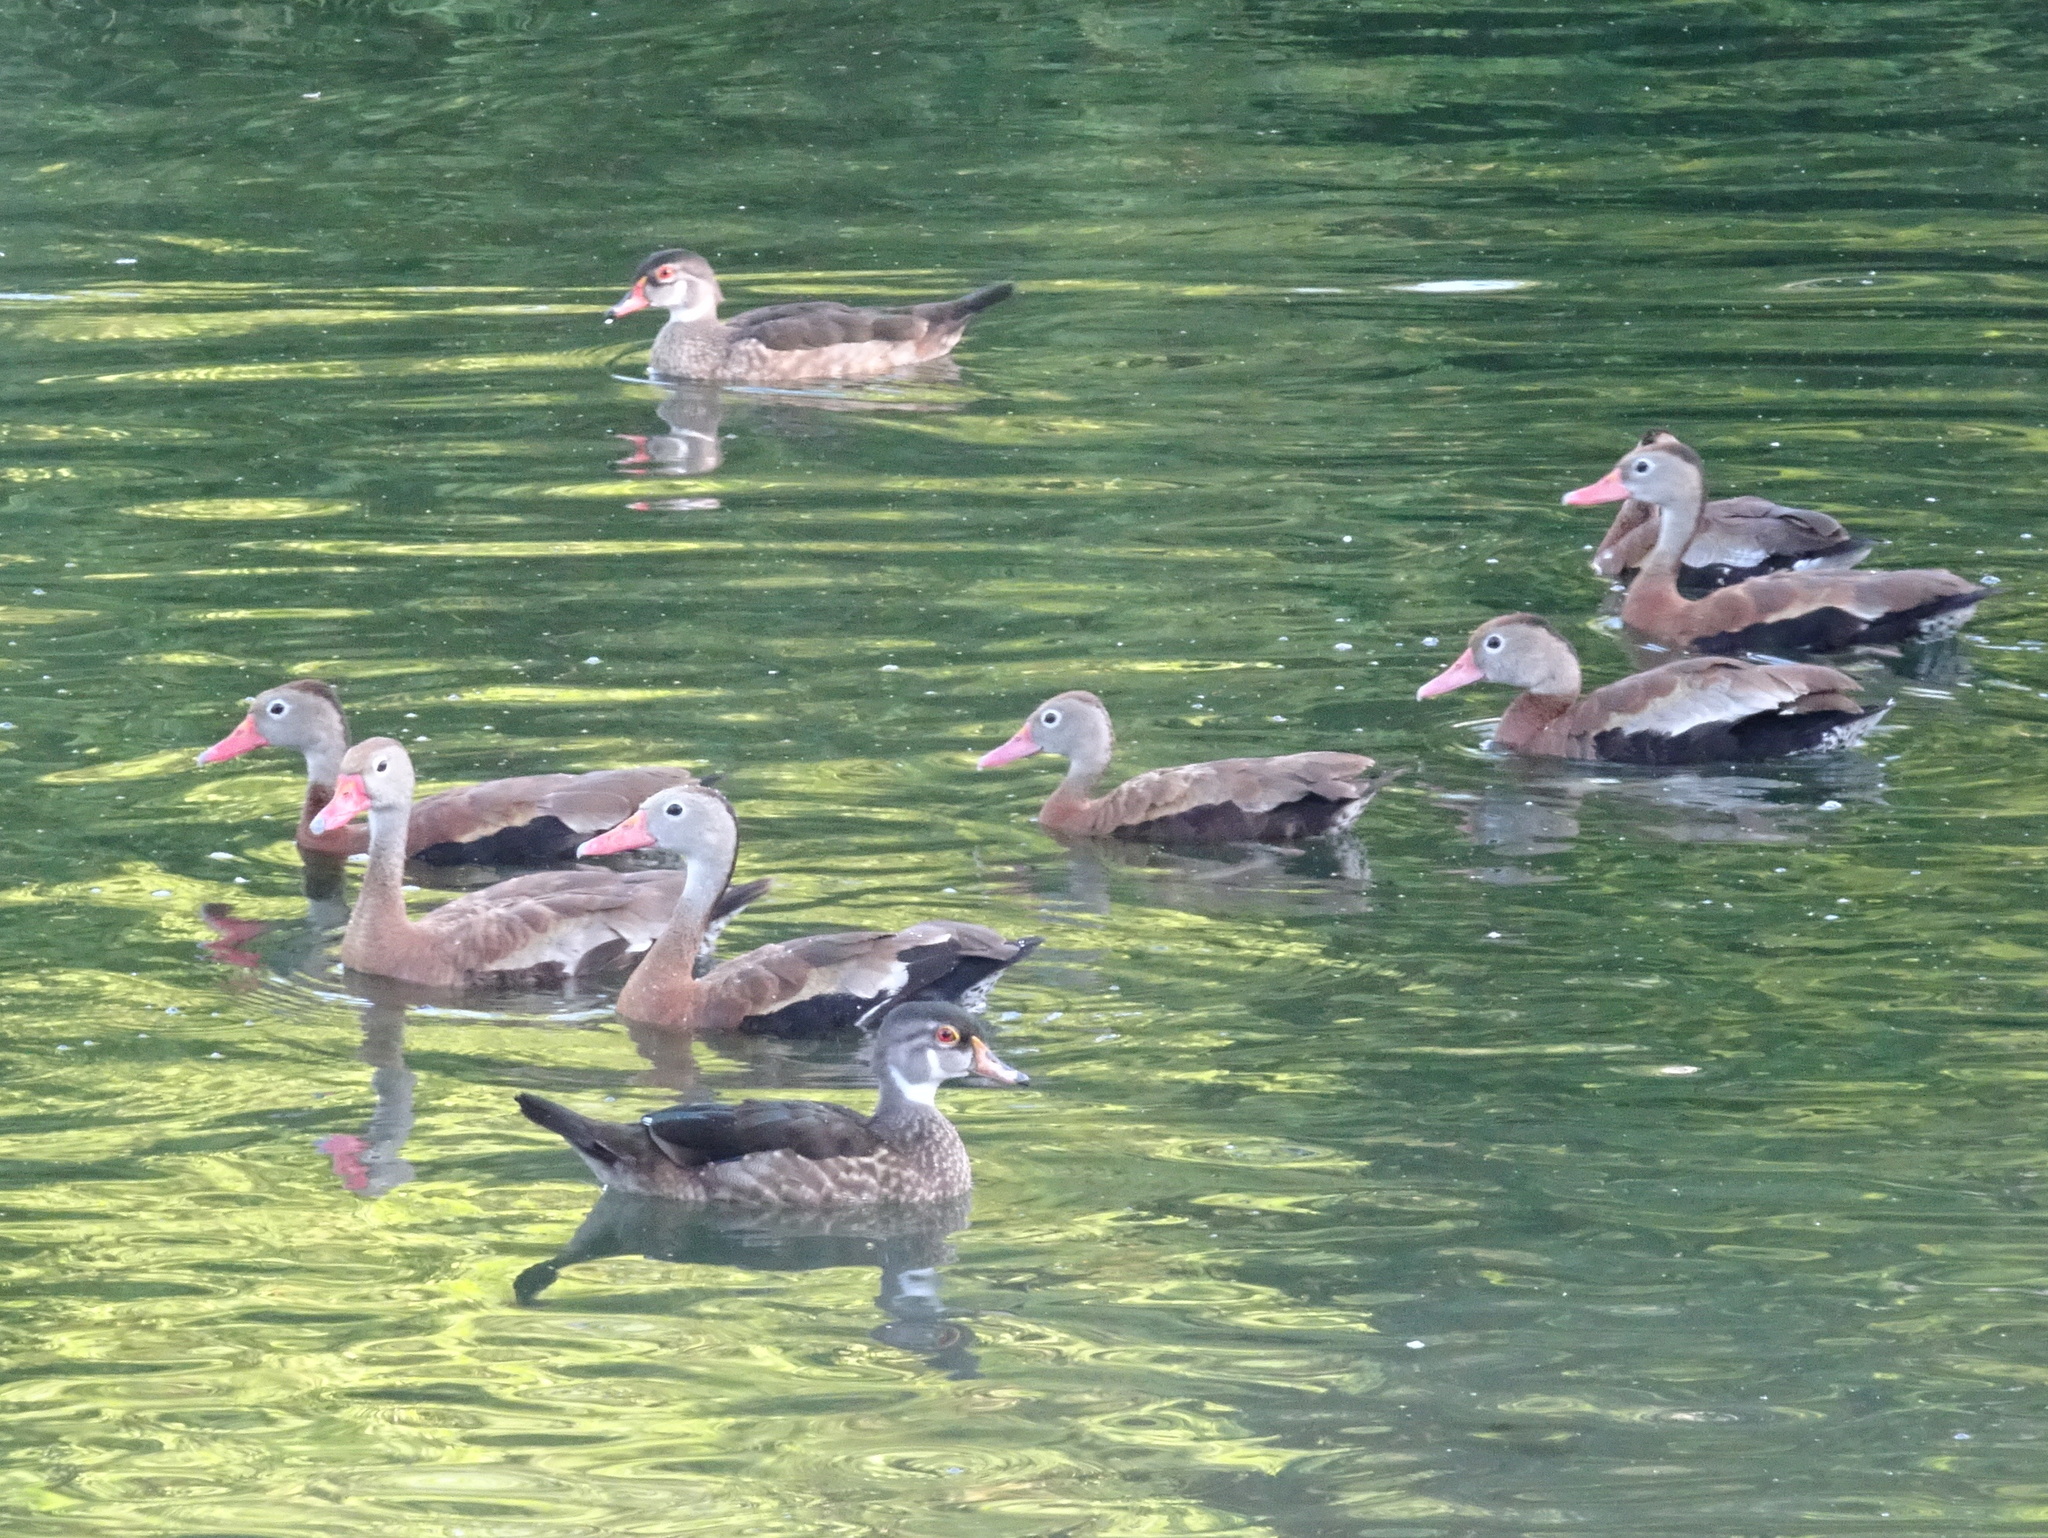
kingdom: Animalia
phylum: Chordata
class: Aves
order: Anseriformes
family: Anatidae
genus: Dendrocygna
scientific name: Dendrocygna autumnalis
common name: Black-bellied whistling duck
